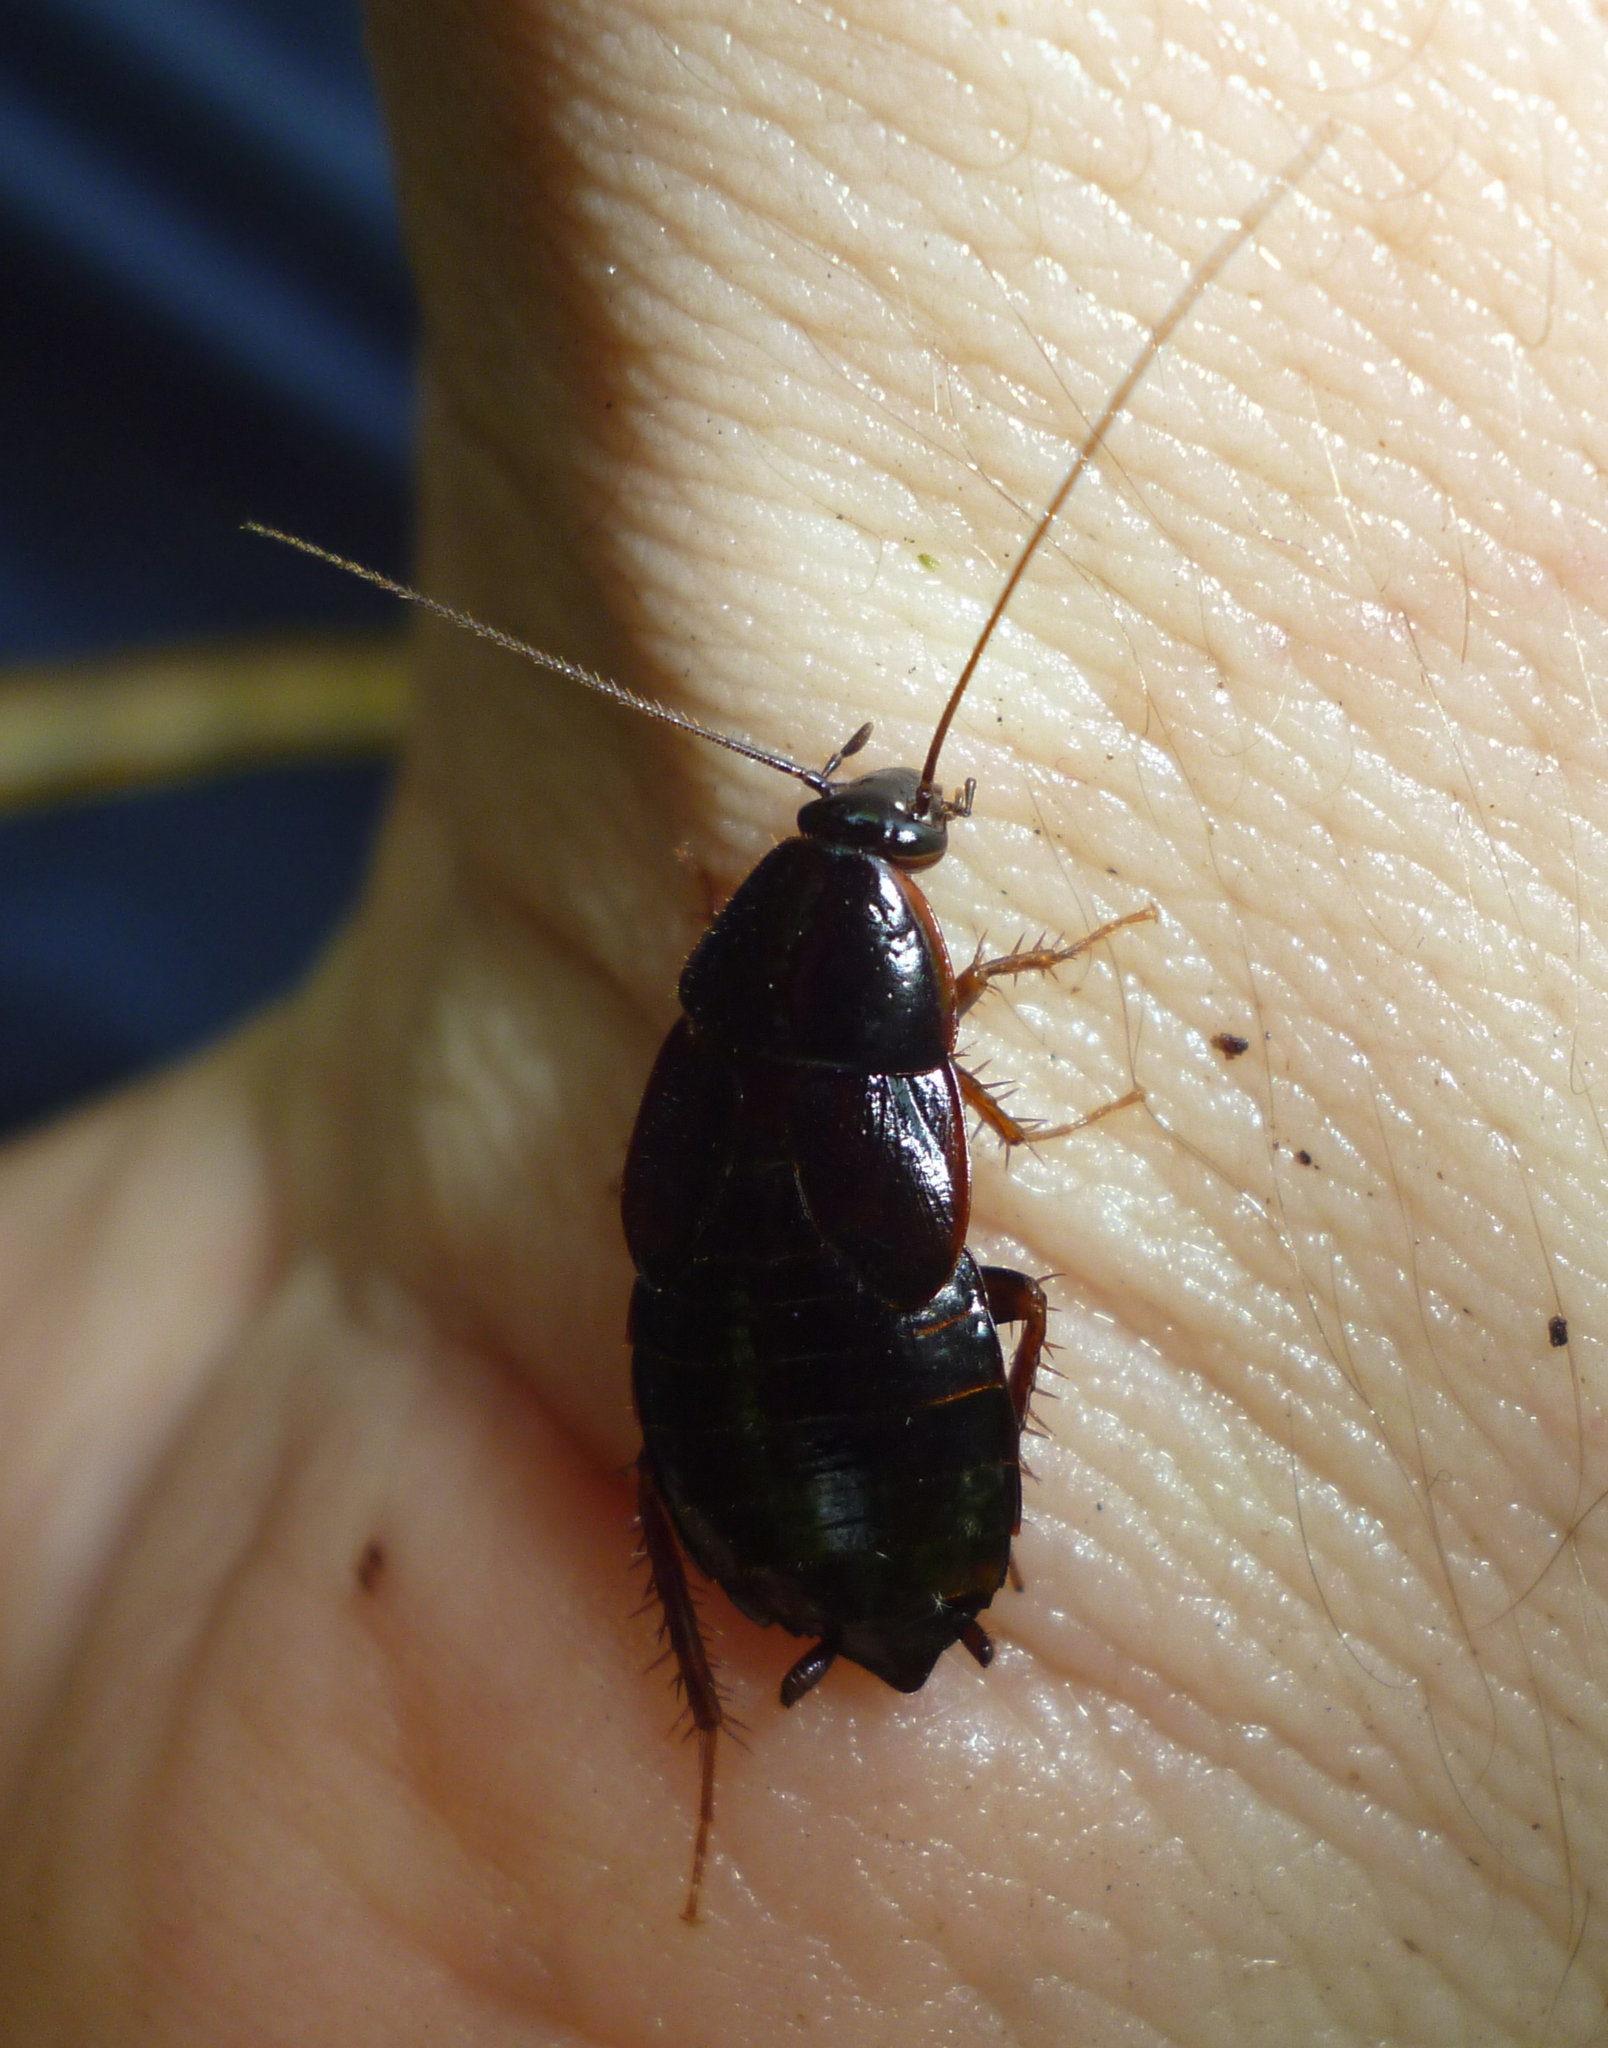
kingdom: Animalia
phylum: Arthropoda
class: Insecta
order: Blattodea
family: Ectobiidae
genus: Parcoblatta
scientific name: Parcoblatta uhleriana
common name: Uhler's wood cockroach
